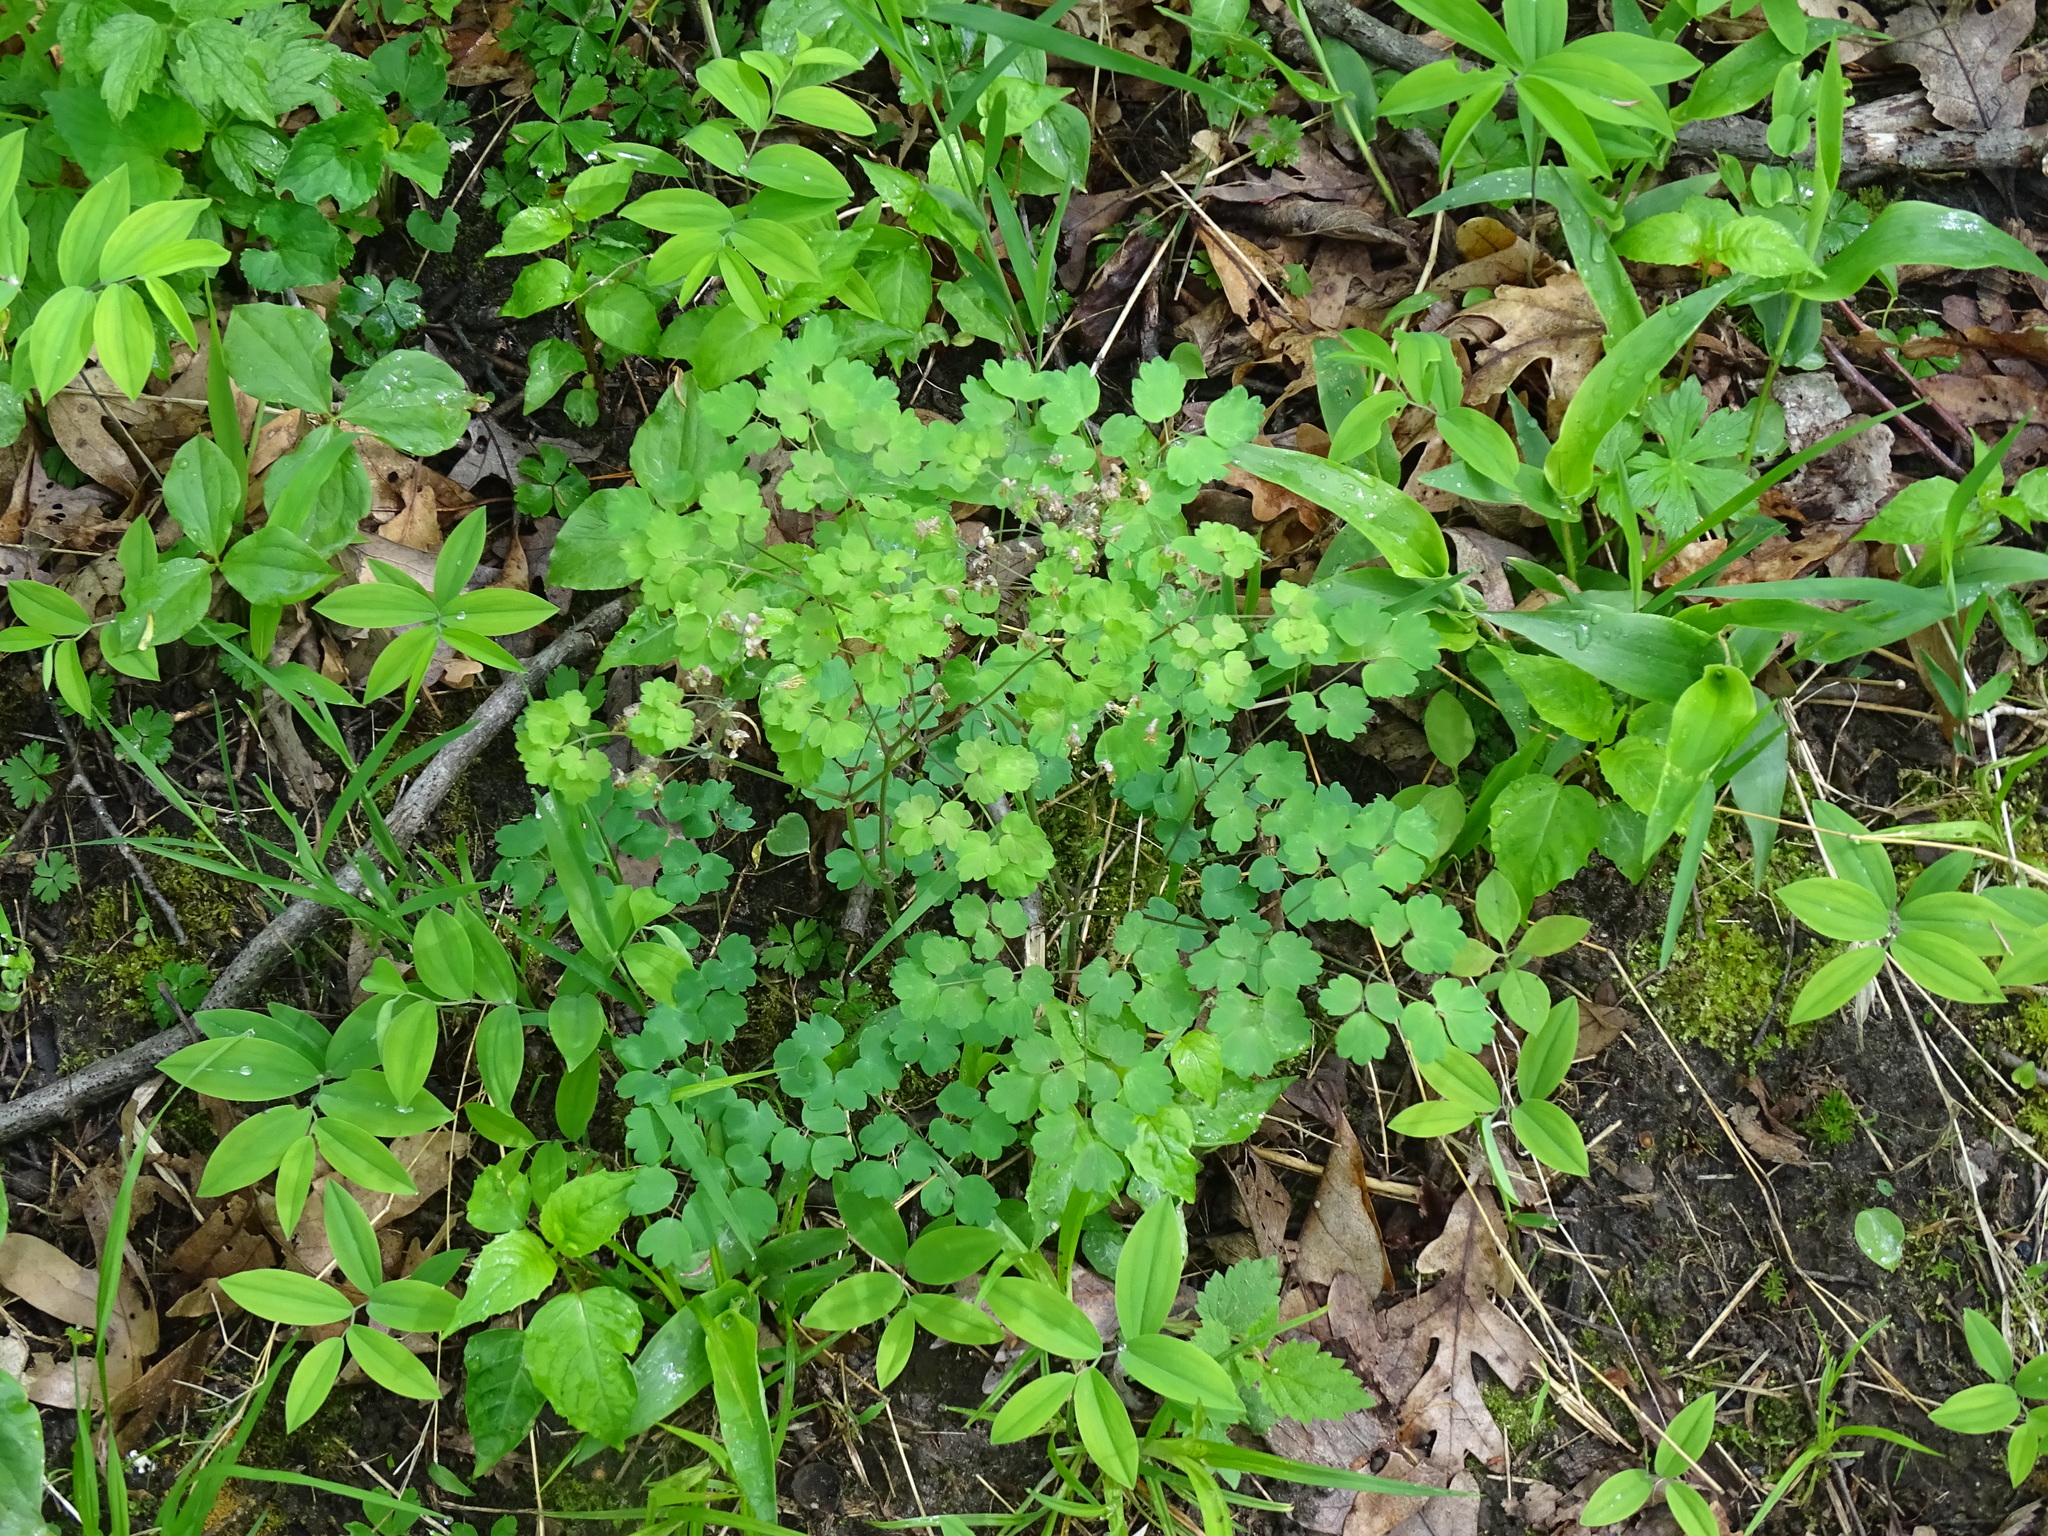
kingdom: Plantae
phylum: Tracheophyta
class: Magnoliopsida
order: Ranunculales
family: Ranunculaceae
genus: Thalictrum
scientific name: Thalictrum dioicum
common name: Early meadow-rue
